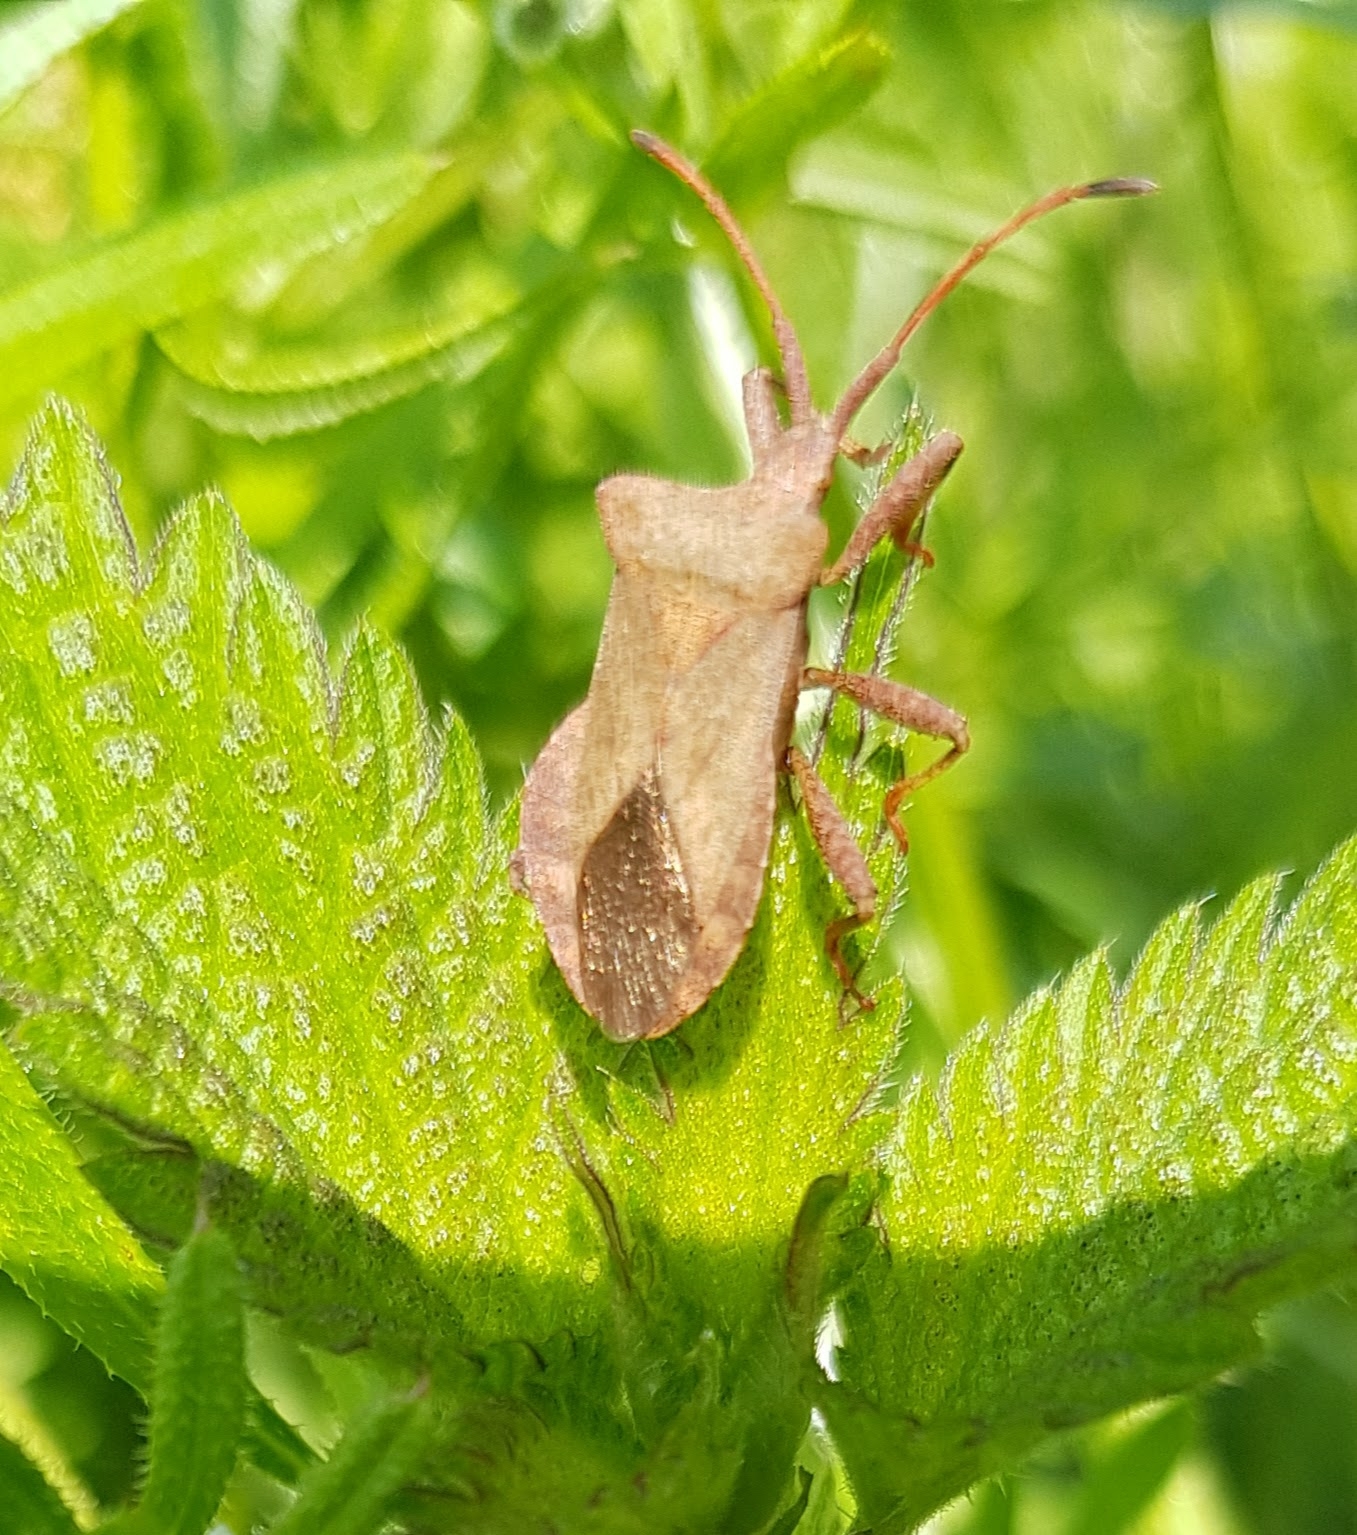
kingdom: Animalia
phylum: Arthropoda
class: Insecta
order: Hemiptera
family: Coreidae
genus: Coreus
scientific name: Coreus marginatus
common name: Dock bug
